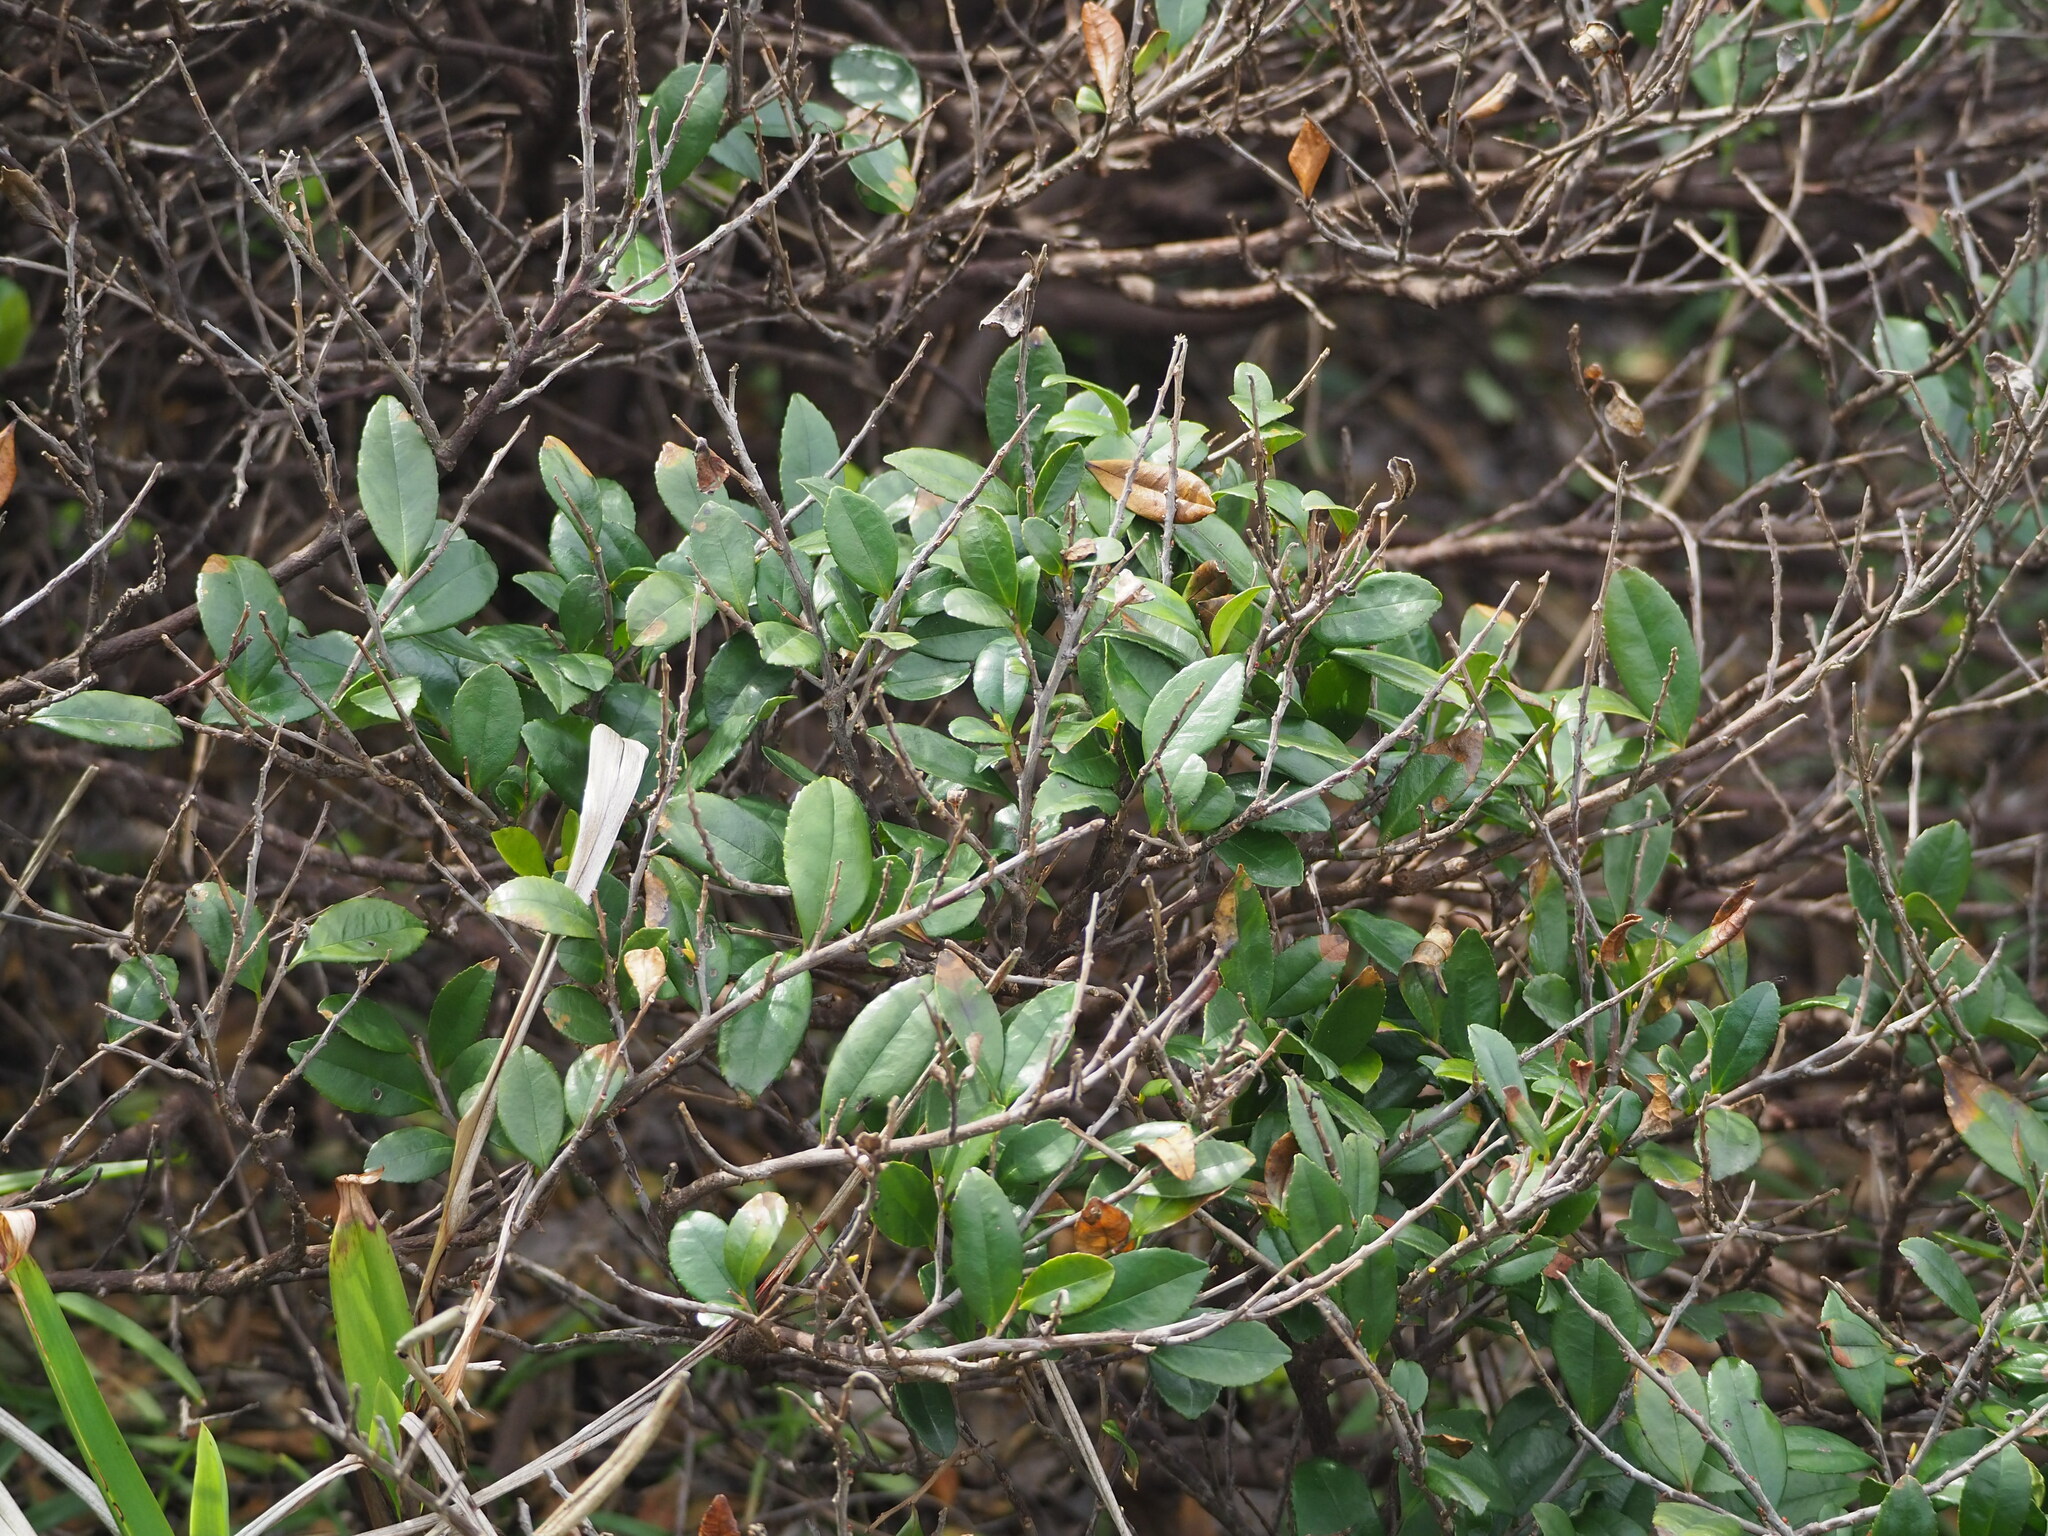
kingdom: Plantae
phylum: Tracheophyta
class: Magnoliopsida
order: Ericales
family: Pentaphylacaceae
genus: Eurya
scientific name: Eurya emarginata
